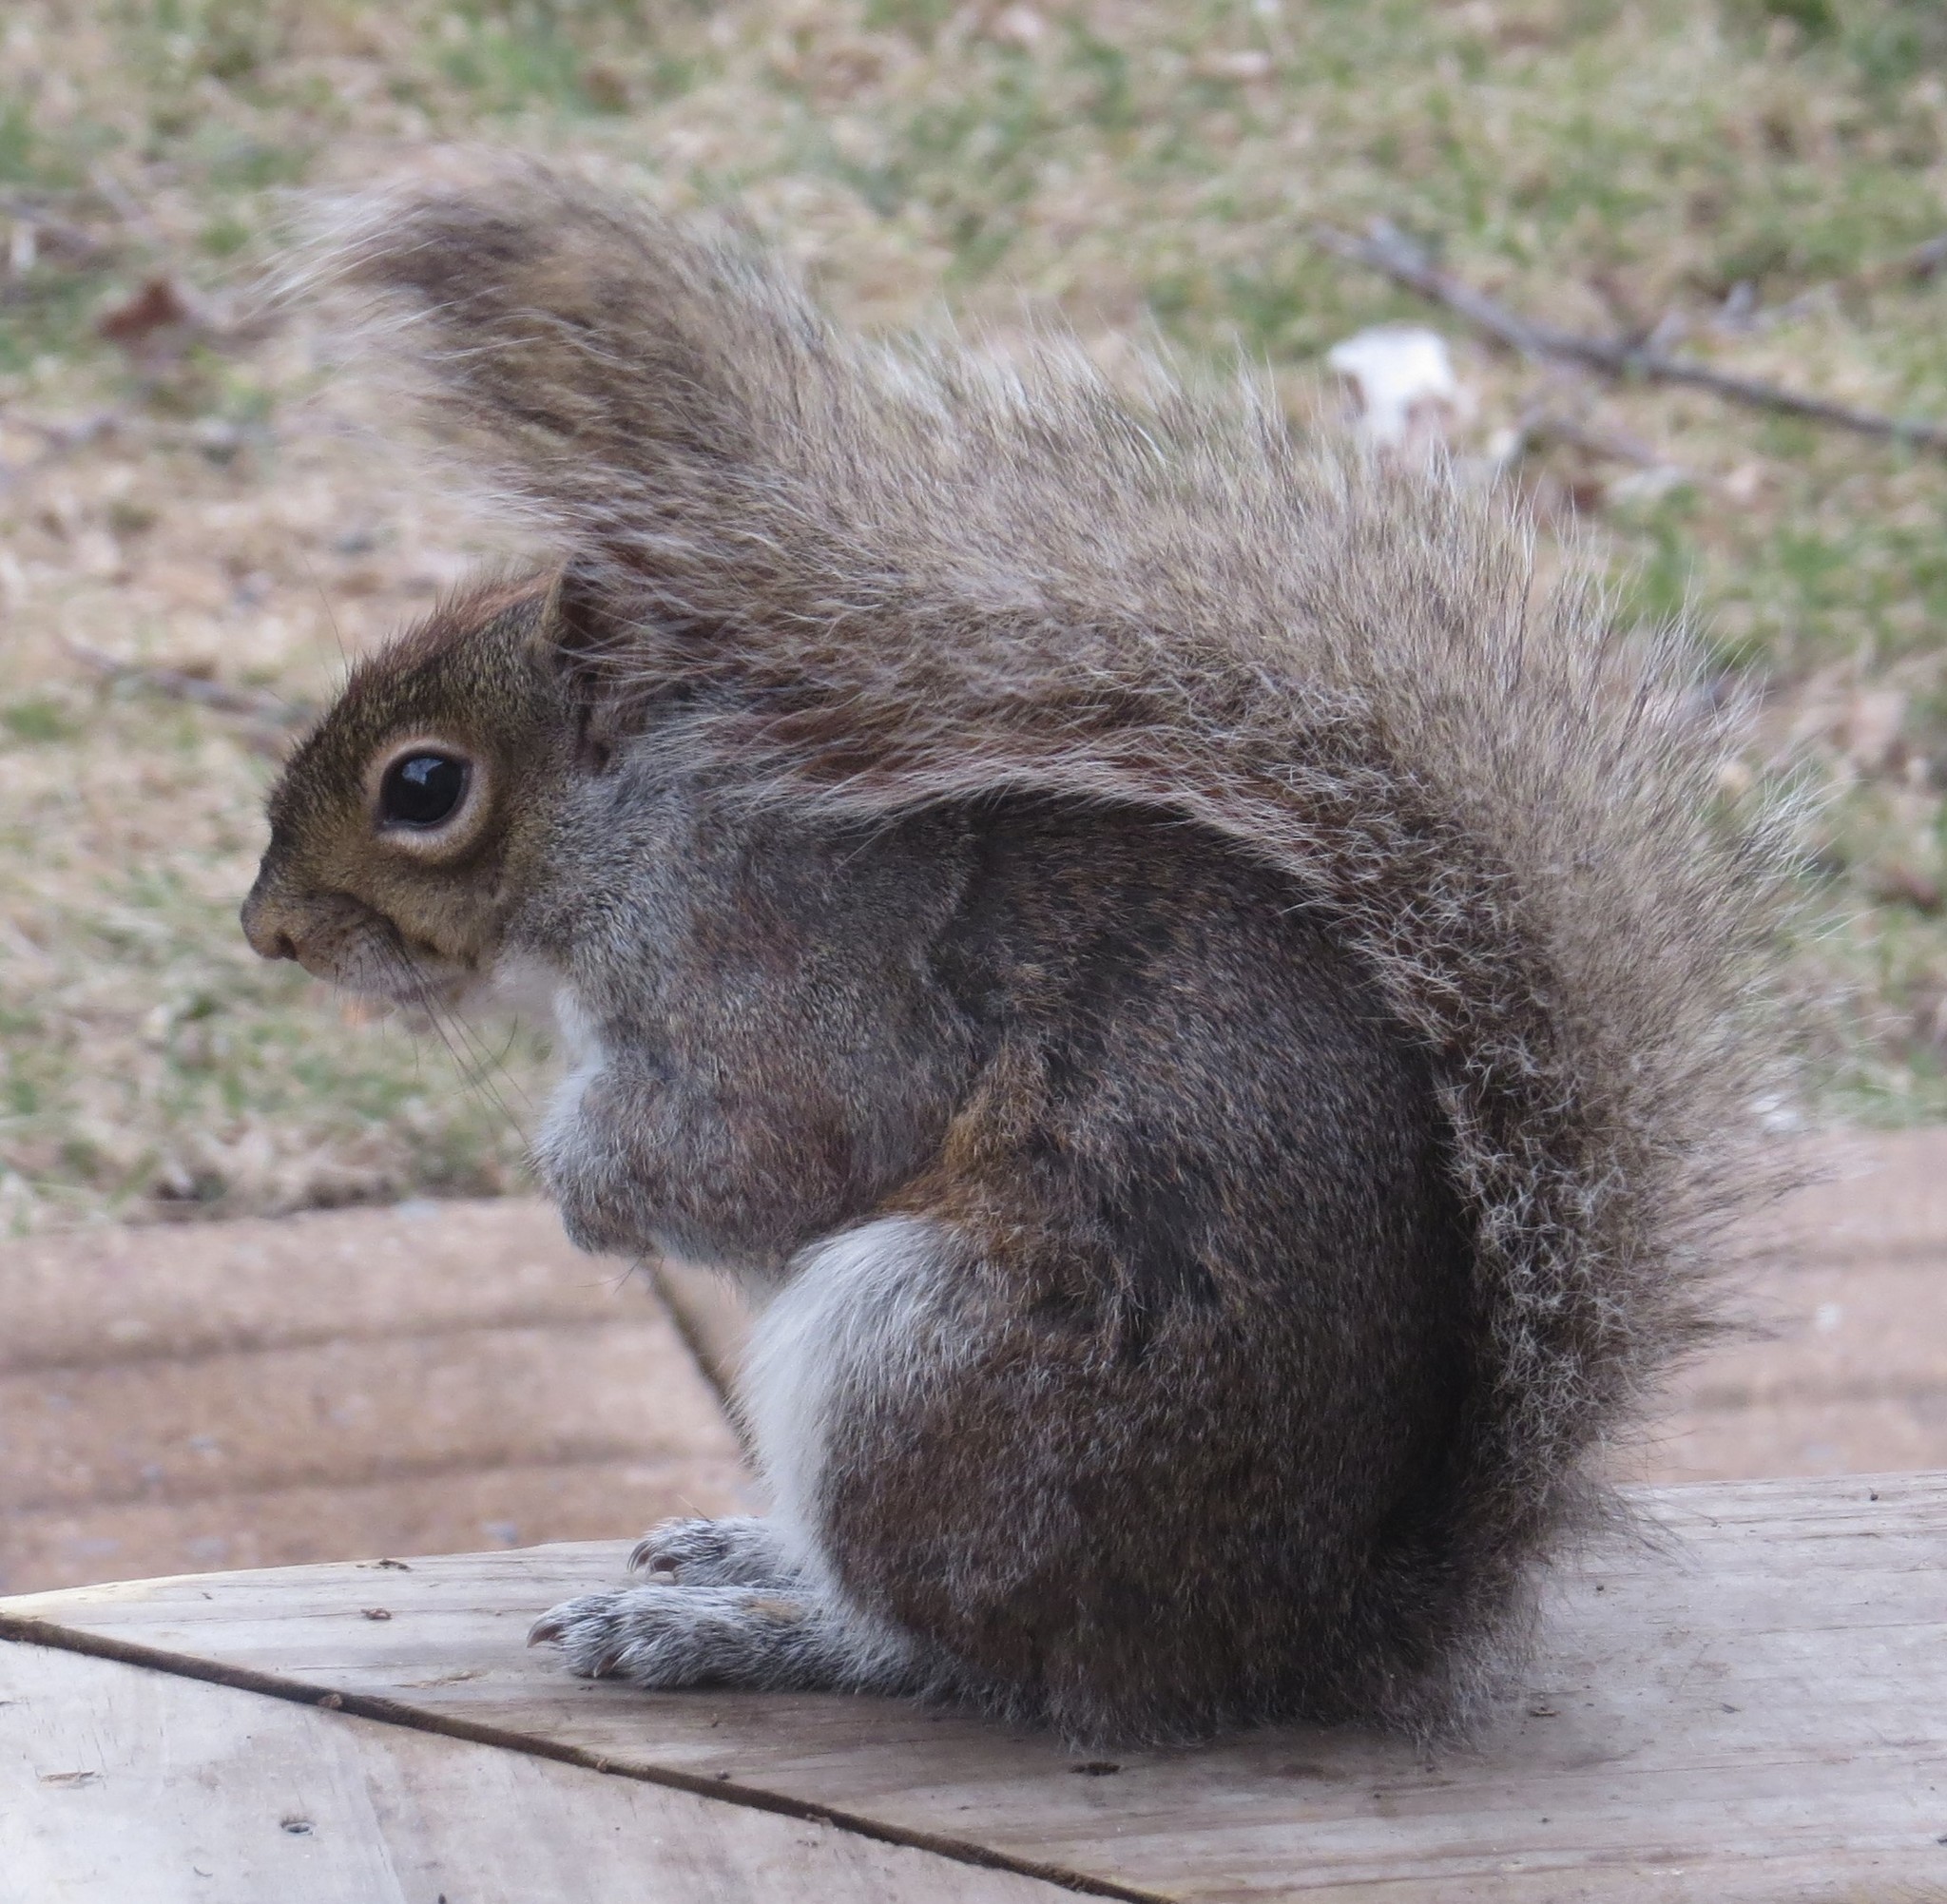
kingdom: Animalia
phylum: Chordata
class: Mammalia
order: Rodentia
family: Sciuridae
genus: Sciurus
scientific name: Sciurus carolinensis
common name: Eastern gray squirrel
